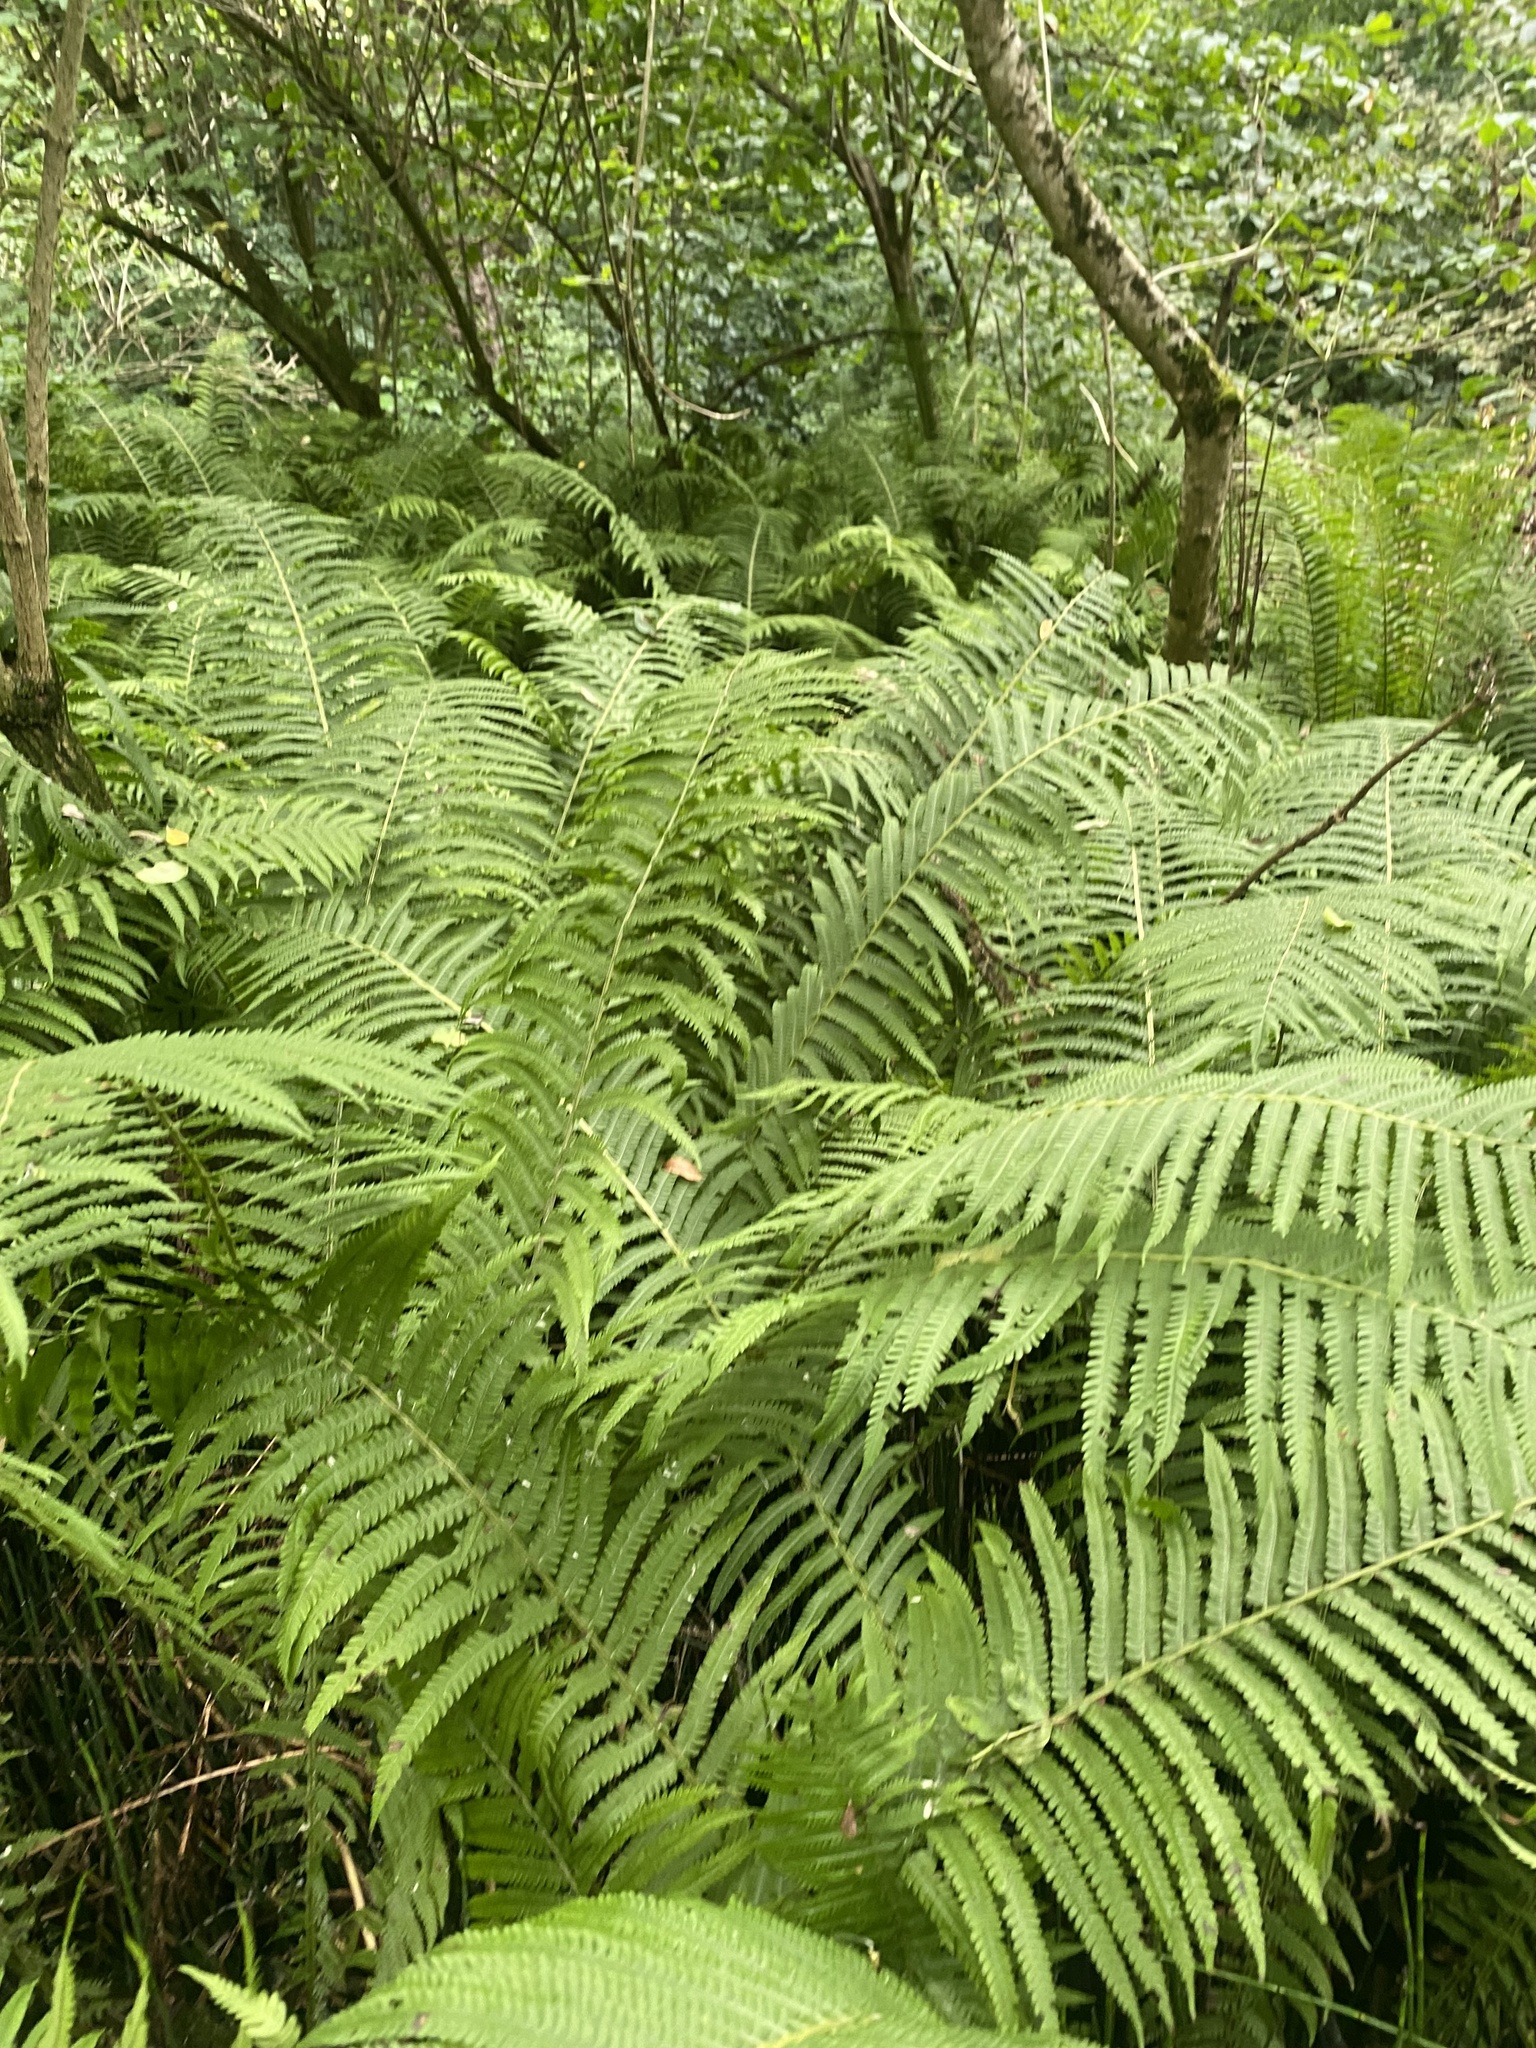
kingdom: Plantae
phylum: Tracheophyta
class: Polypodiopsida
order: Polypodiales
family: Onocleaceae
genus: Matteuccia
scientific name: Matteuccia struthiopteris
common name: Ostrich fern
